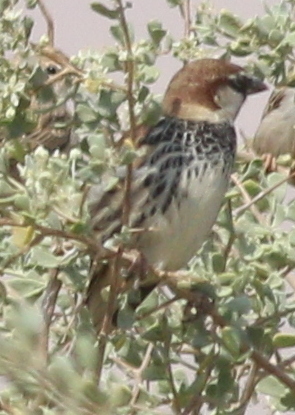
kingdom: Animalia
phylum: Chordata
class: Aves
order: Passeriformes
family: Passeridae
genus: Passer
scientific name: Passer hispaniolensis
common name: Spanish sparrow
